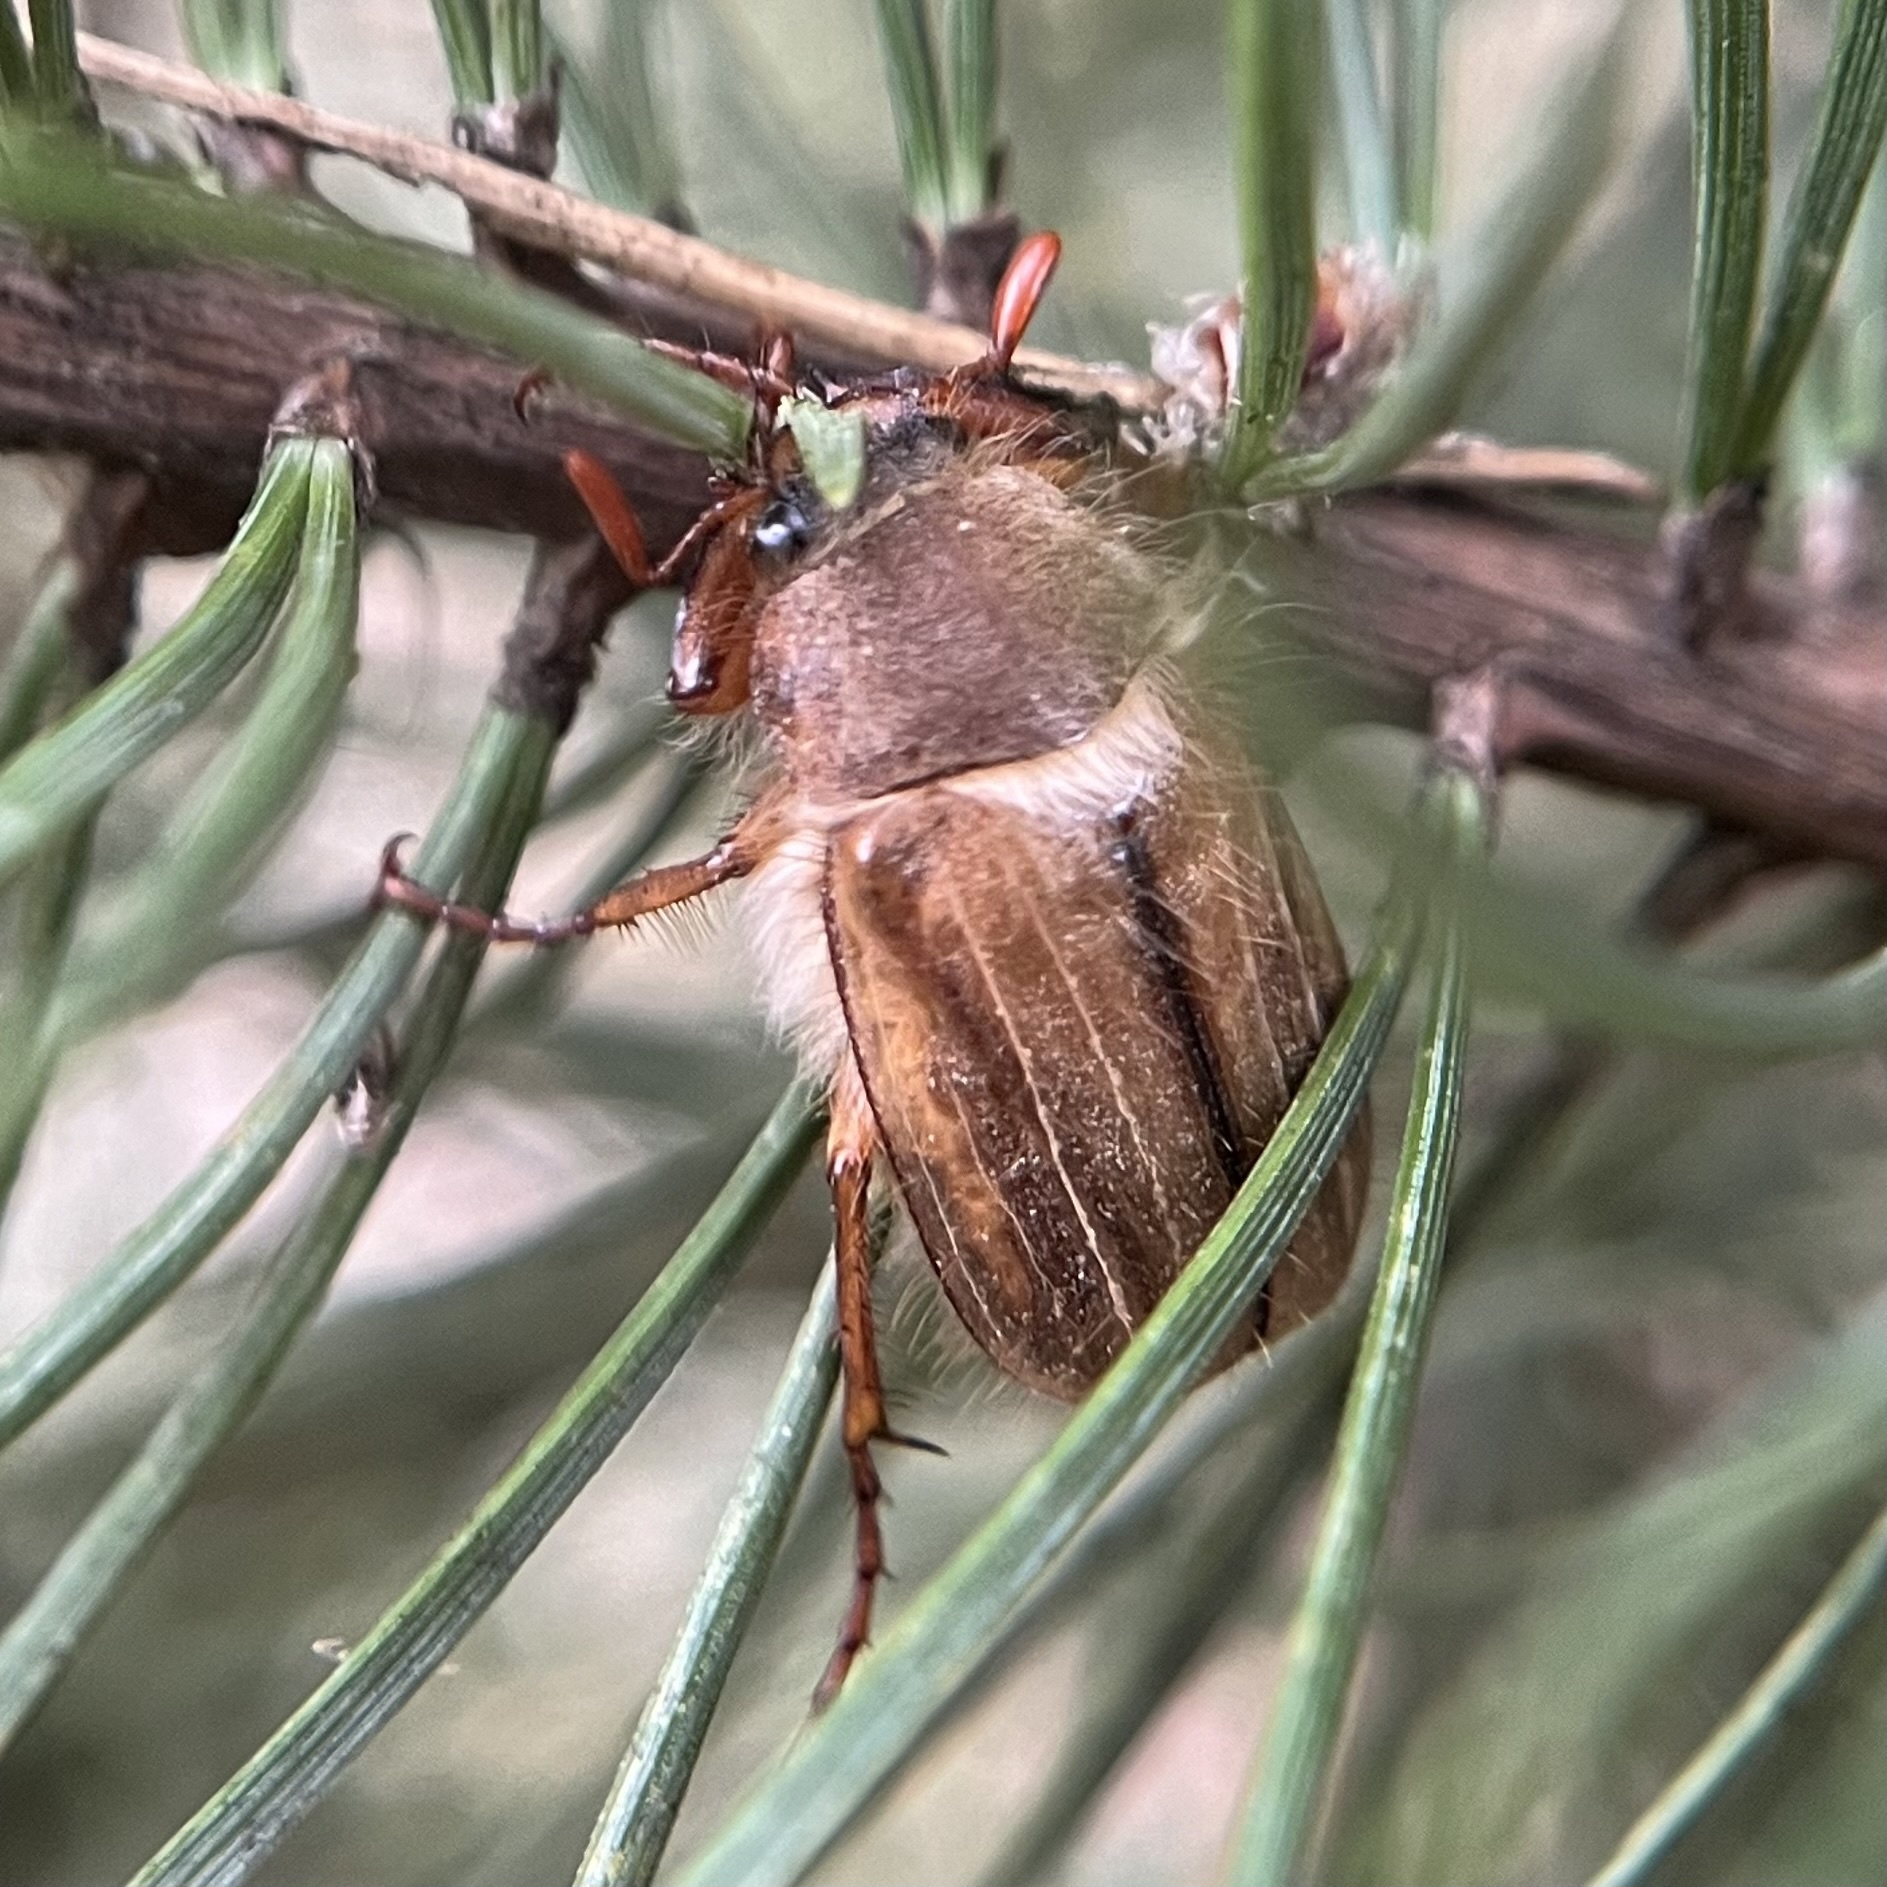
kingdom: Animalia
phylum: Arthropoda
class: Insecta
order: Coleoptera
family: Scarabaeidae
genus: Amphimallon
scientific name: Amphimallon solstitiale
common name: Summer chafer
